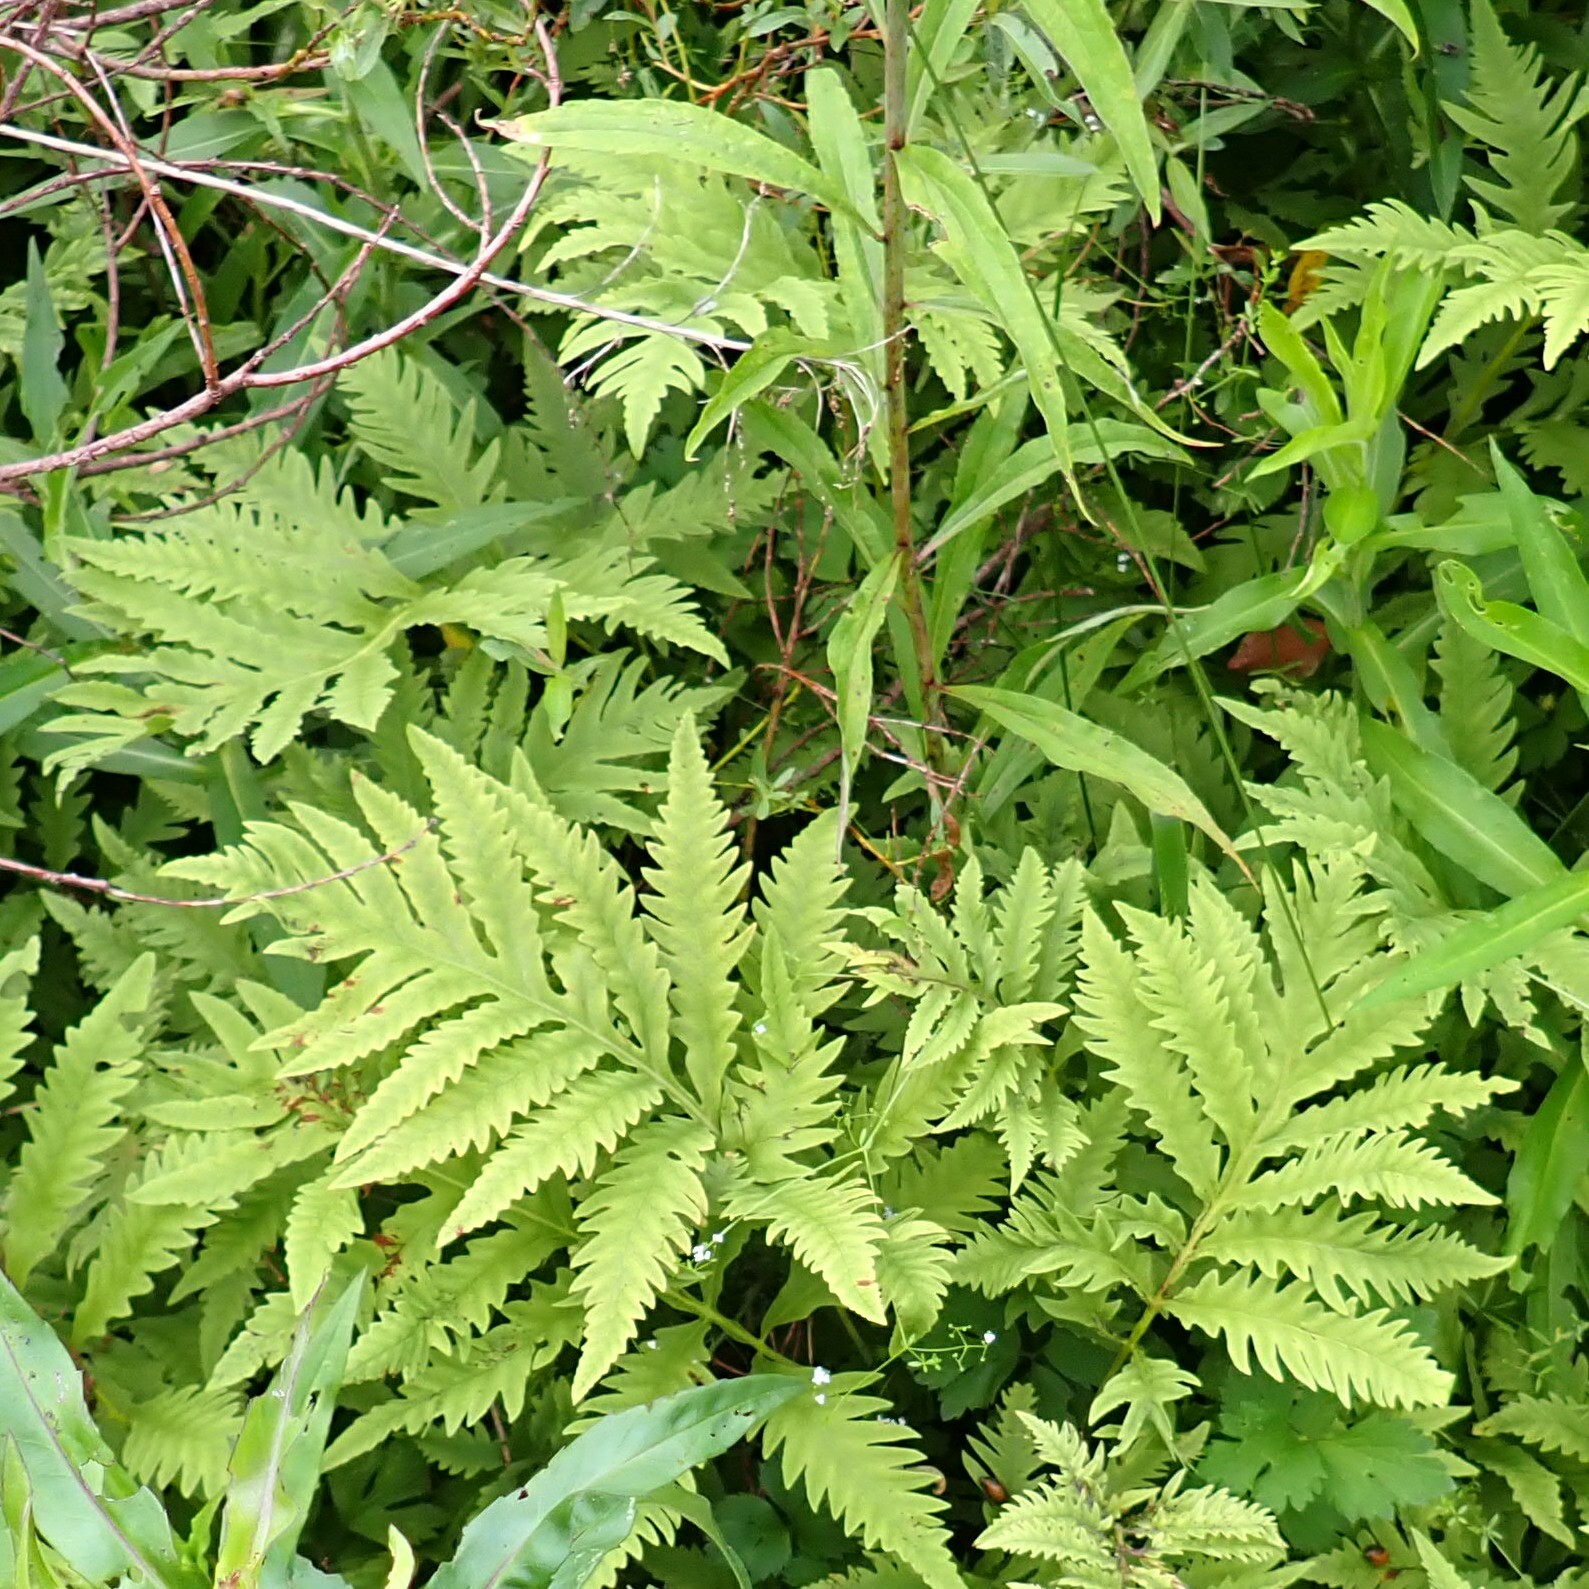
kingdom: Plantae
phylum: Tracheophyta
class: Polypodiopsida
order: Polypodiales
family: Onocleaceae
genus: Onoclea
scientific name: Onoclea sensibilis
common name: Sensitive fern
